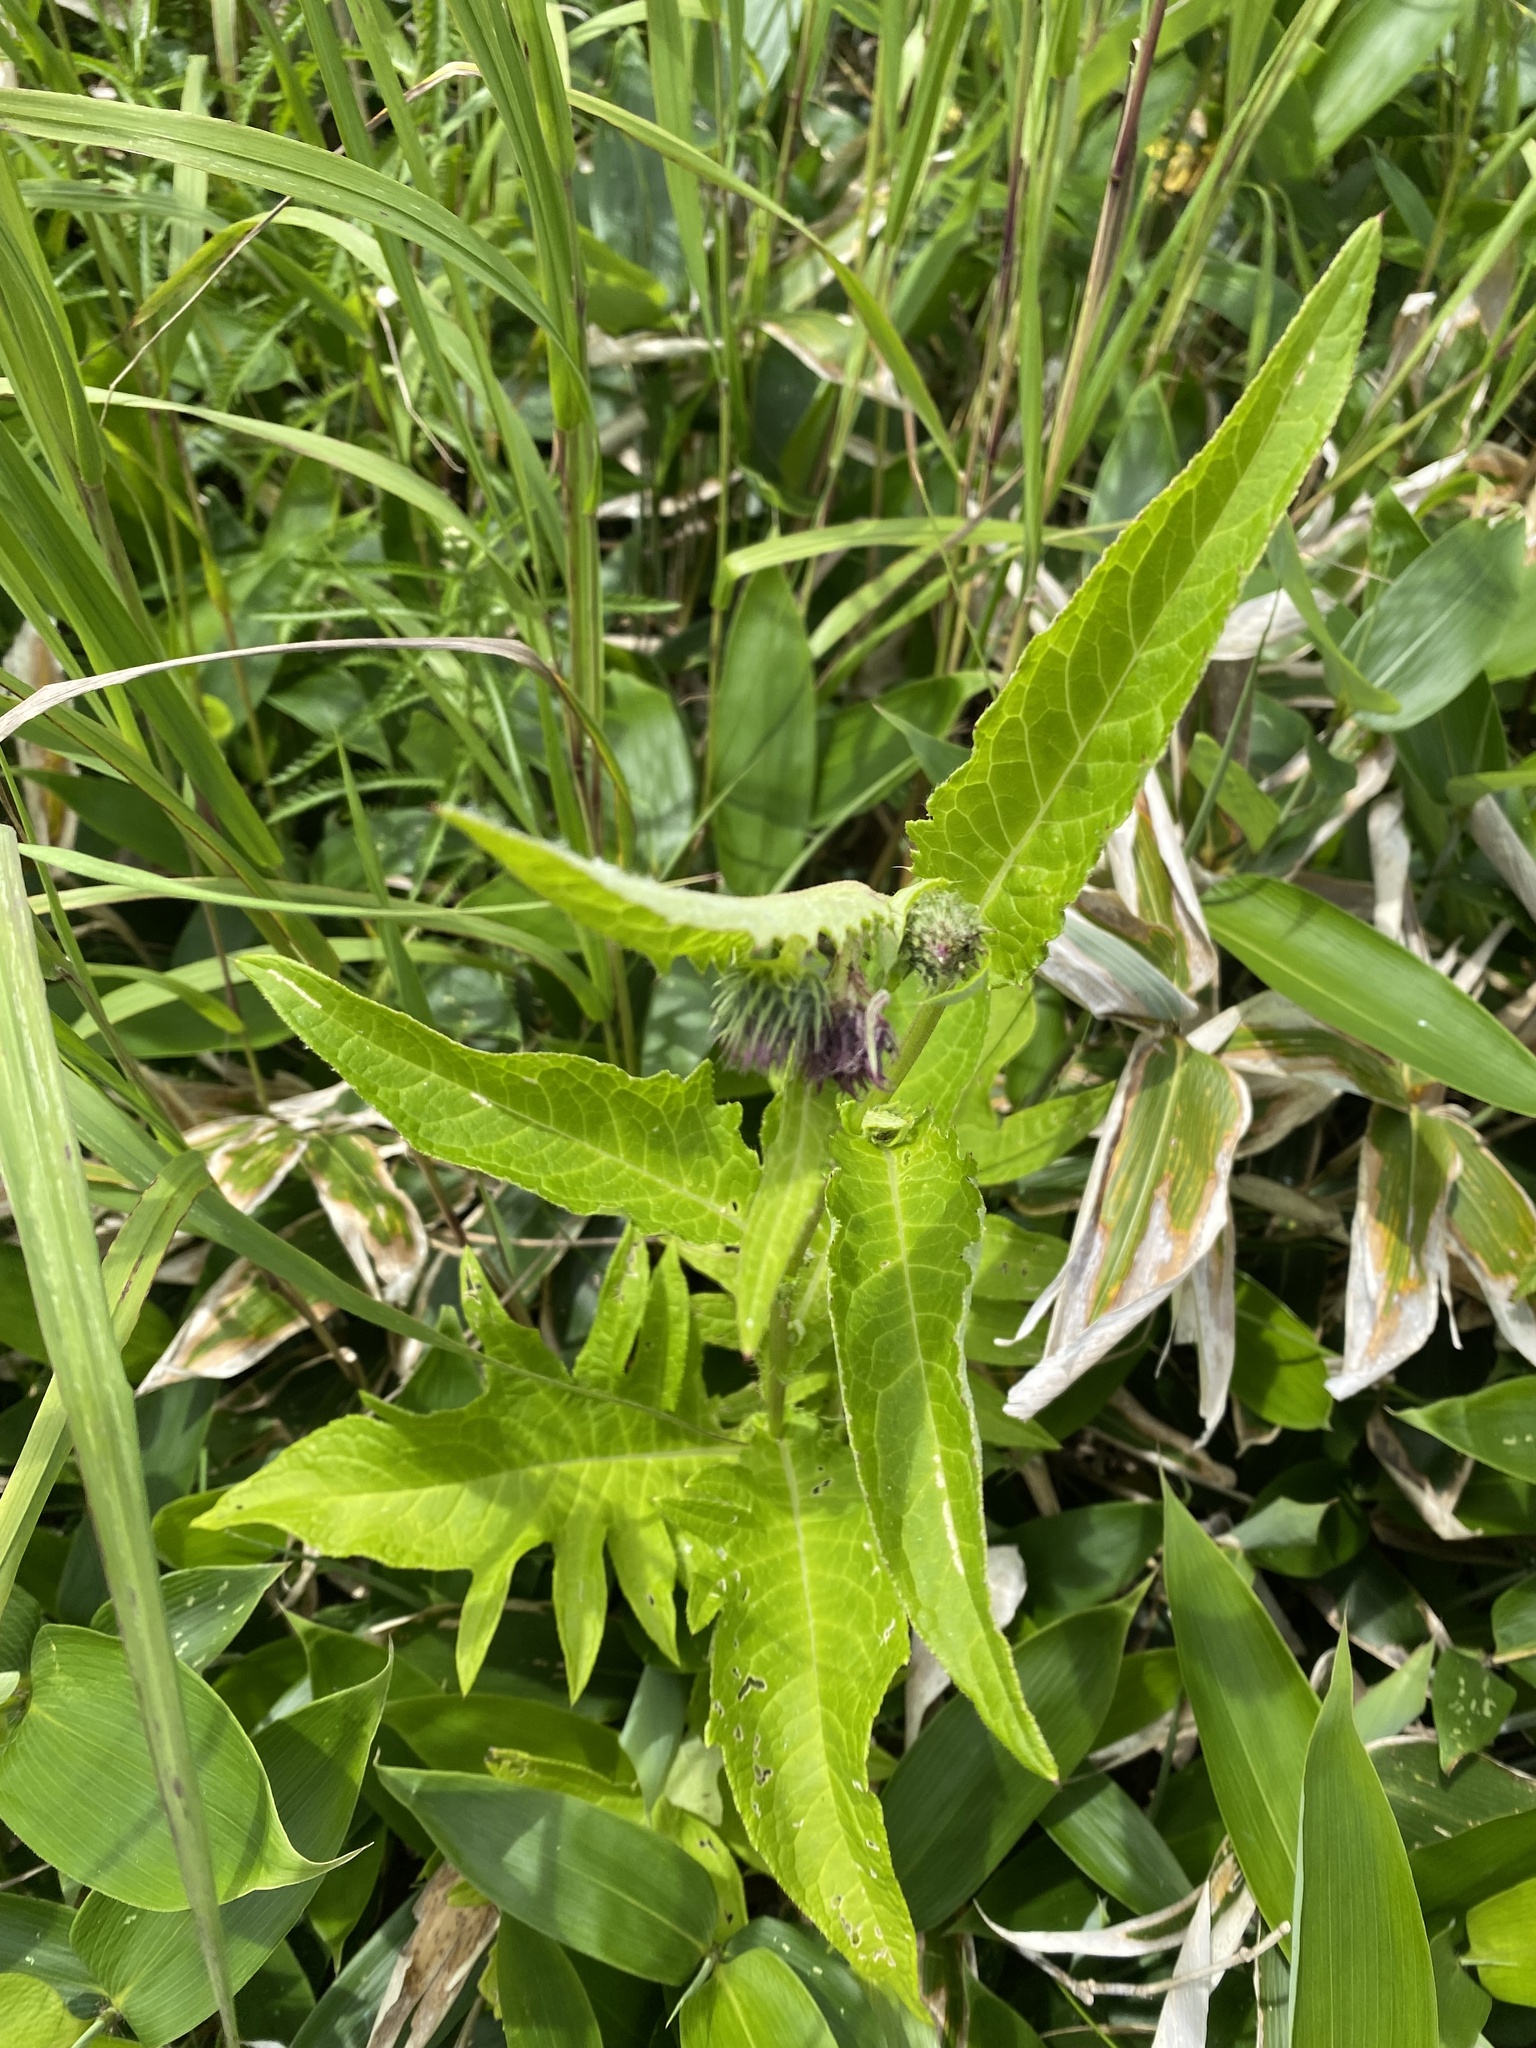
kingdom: Plantae
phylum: Tracheophyta
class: Magnoliopsida
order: Asterales
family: Asteraceae
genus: Cirsium
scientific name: Cirsium kamtschaticum
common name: Kamchatka thistle
